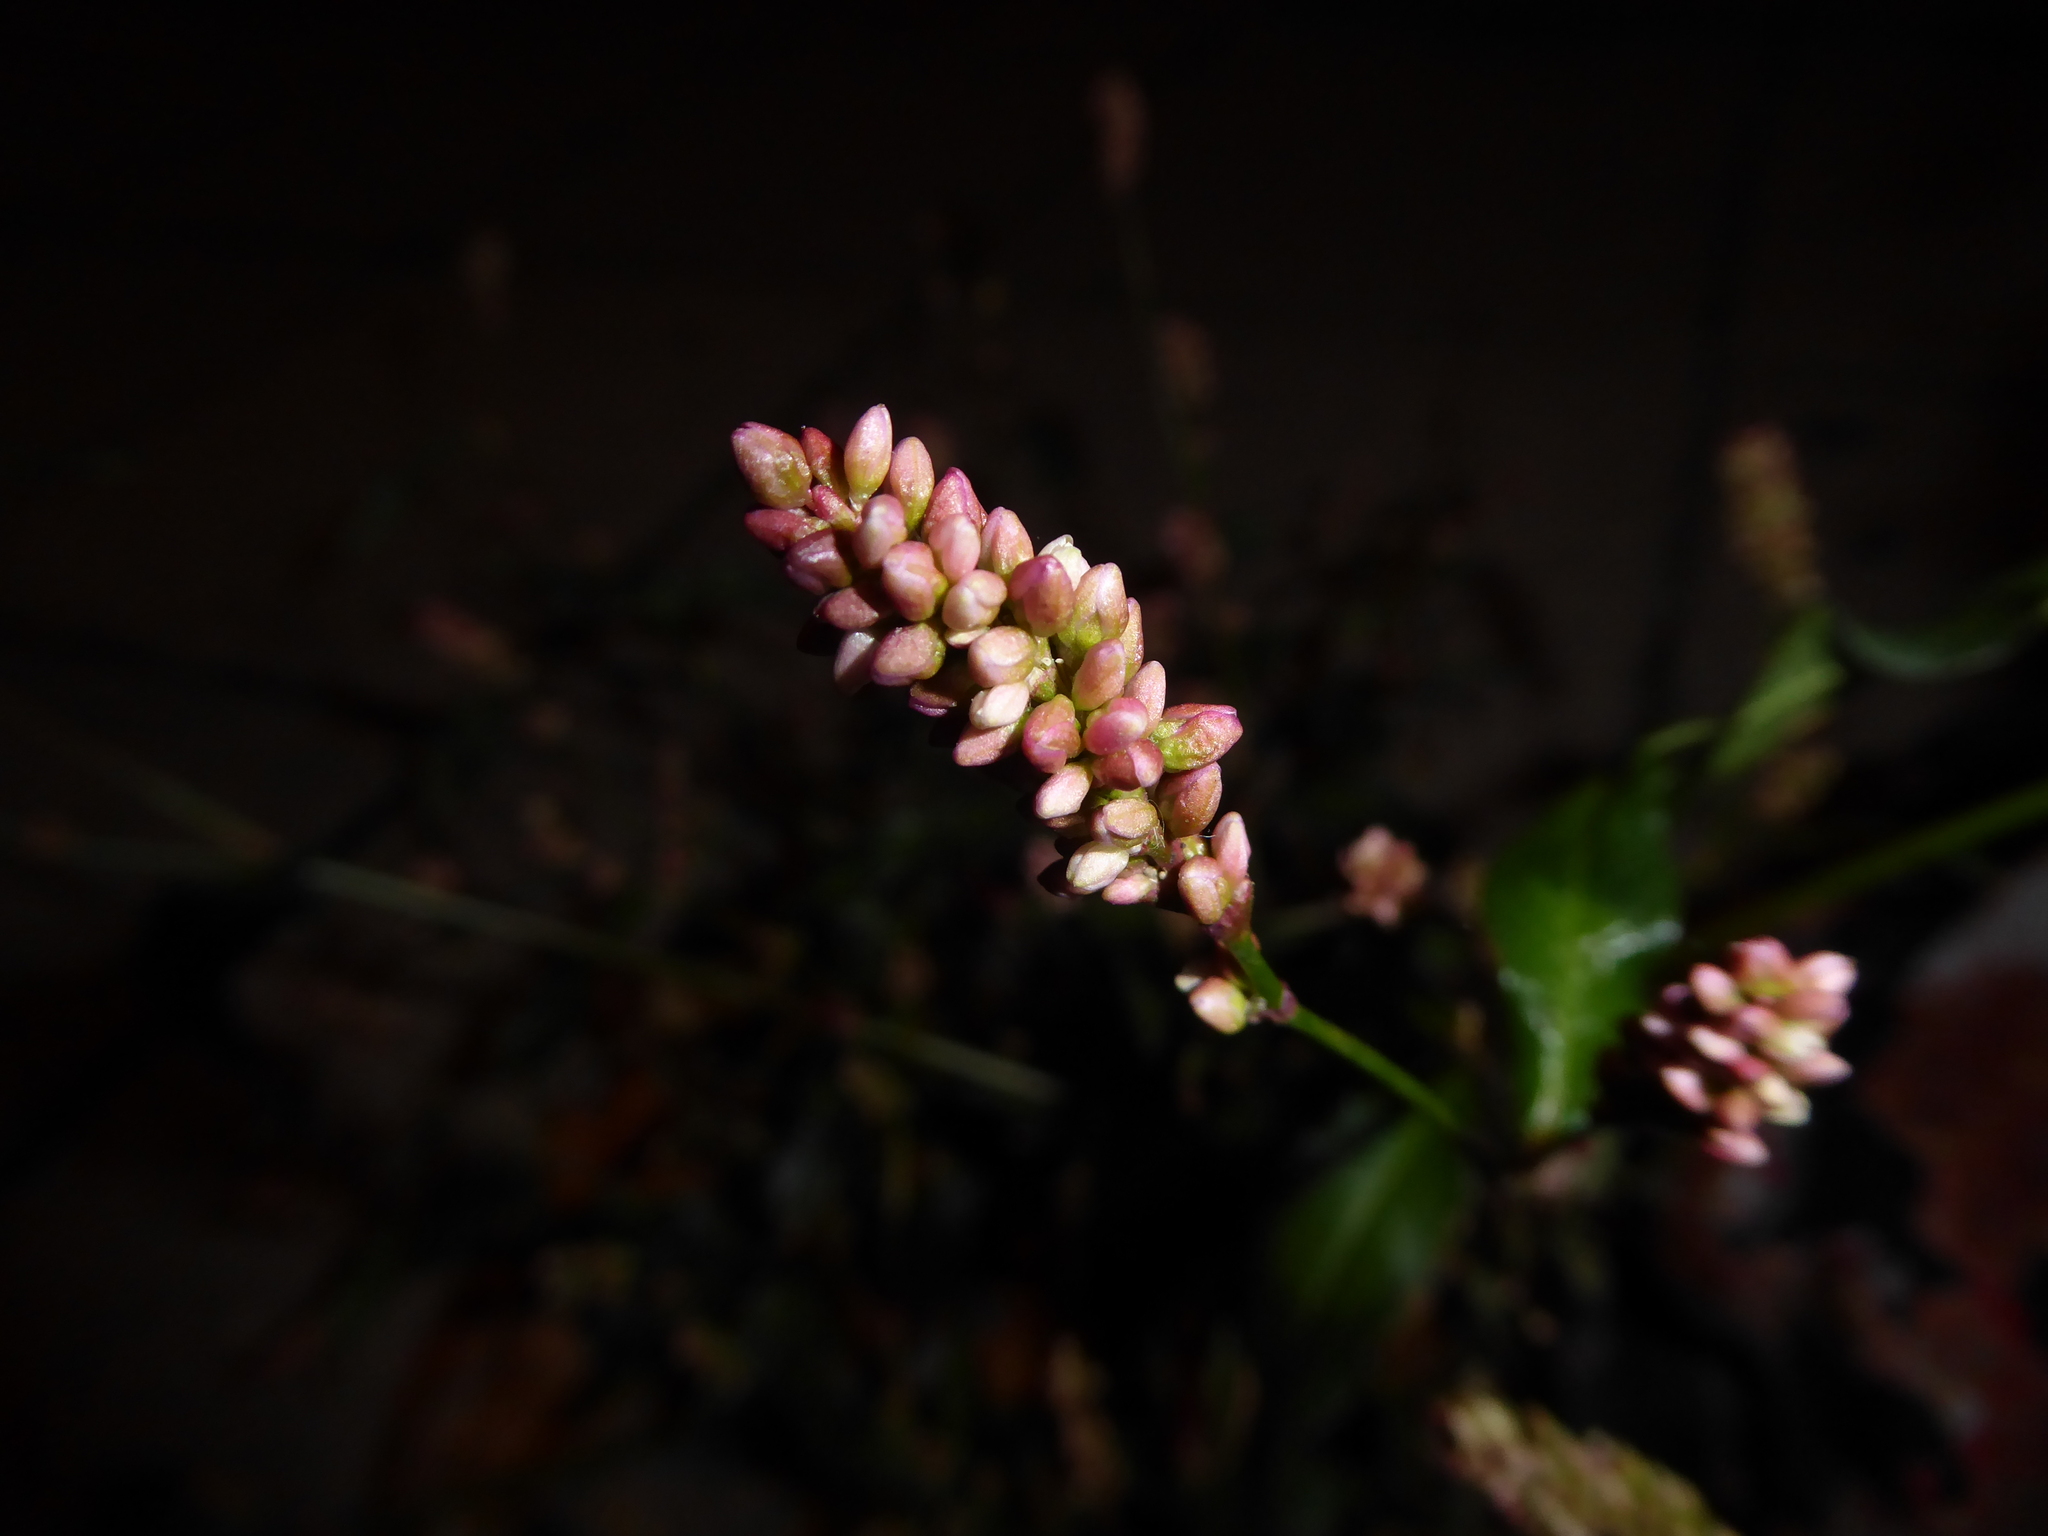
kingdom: Plantae
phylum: Tracheophyta
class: Magnoliopsida
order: Caryophyllales
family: Polygonaceae
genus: Persicaria
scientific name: Persicaria maculosa
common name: Redshank
